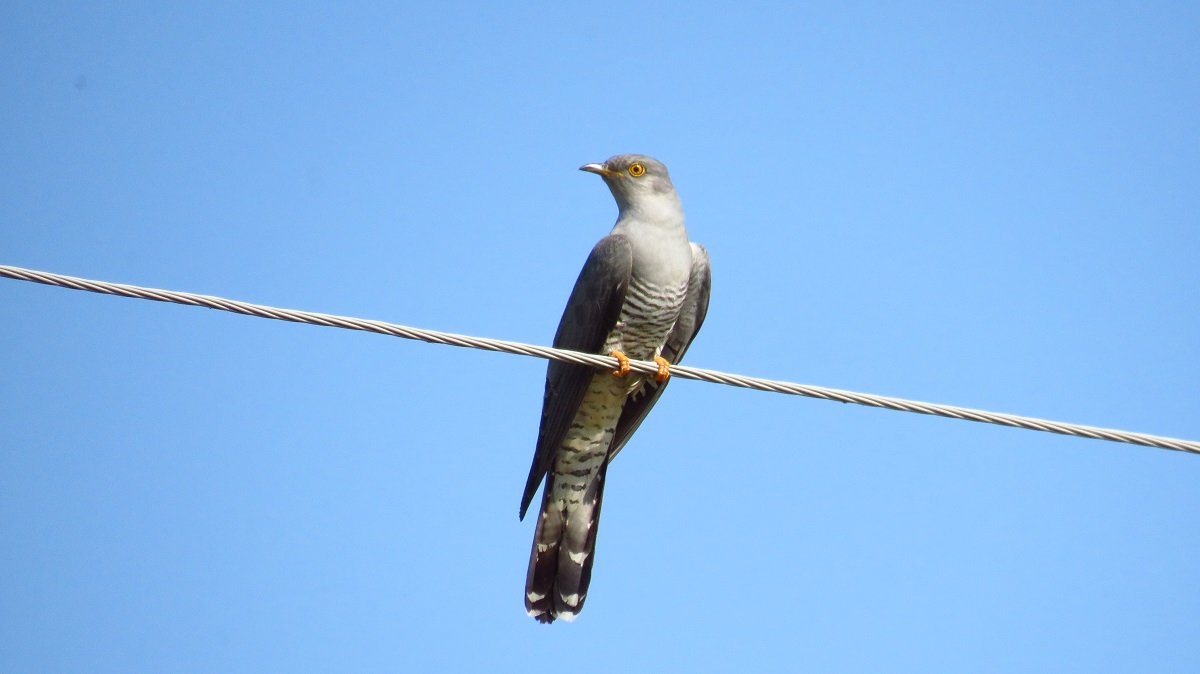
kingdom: Animalia
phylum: Chordata
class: Aves
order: Cuculiformes
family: Cuculidae
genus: Cuculus
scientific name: Cuculus canorus
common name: Common cuckoo
